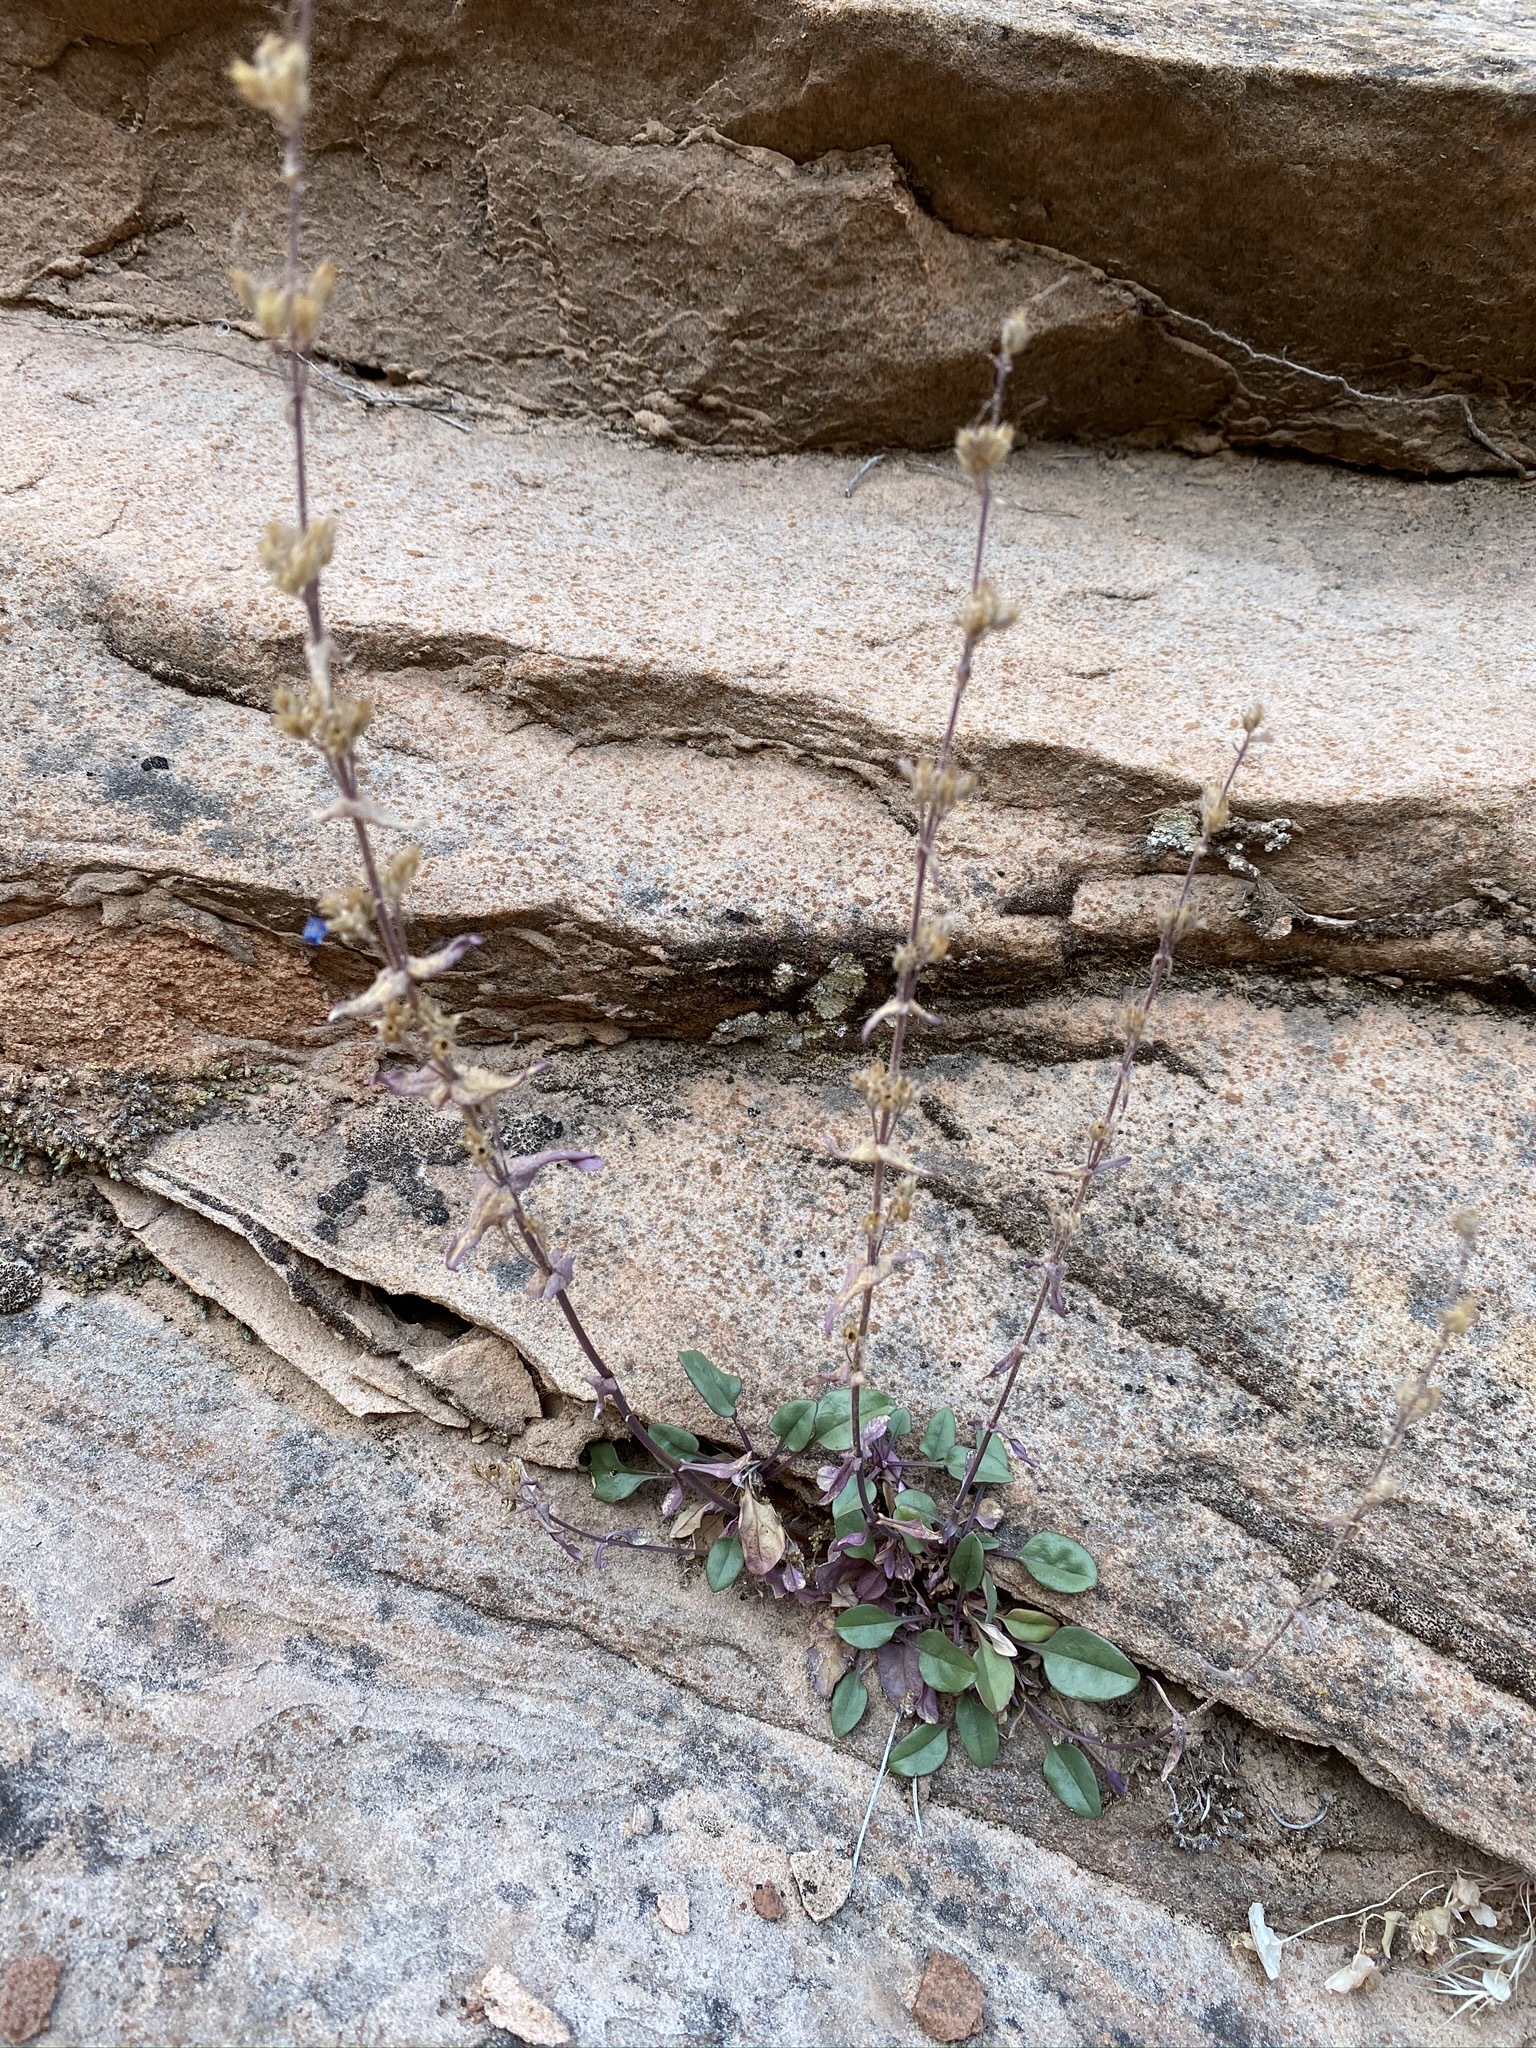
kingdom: Plantae
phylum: Tracheophyta
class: Magnoliopsida
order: Lamiales
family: Plantaginaceae
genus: Penstemon
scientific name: Penstemon humilis
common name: Low penstemon
